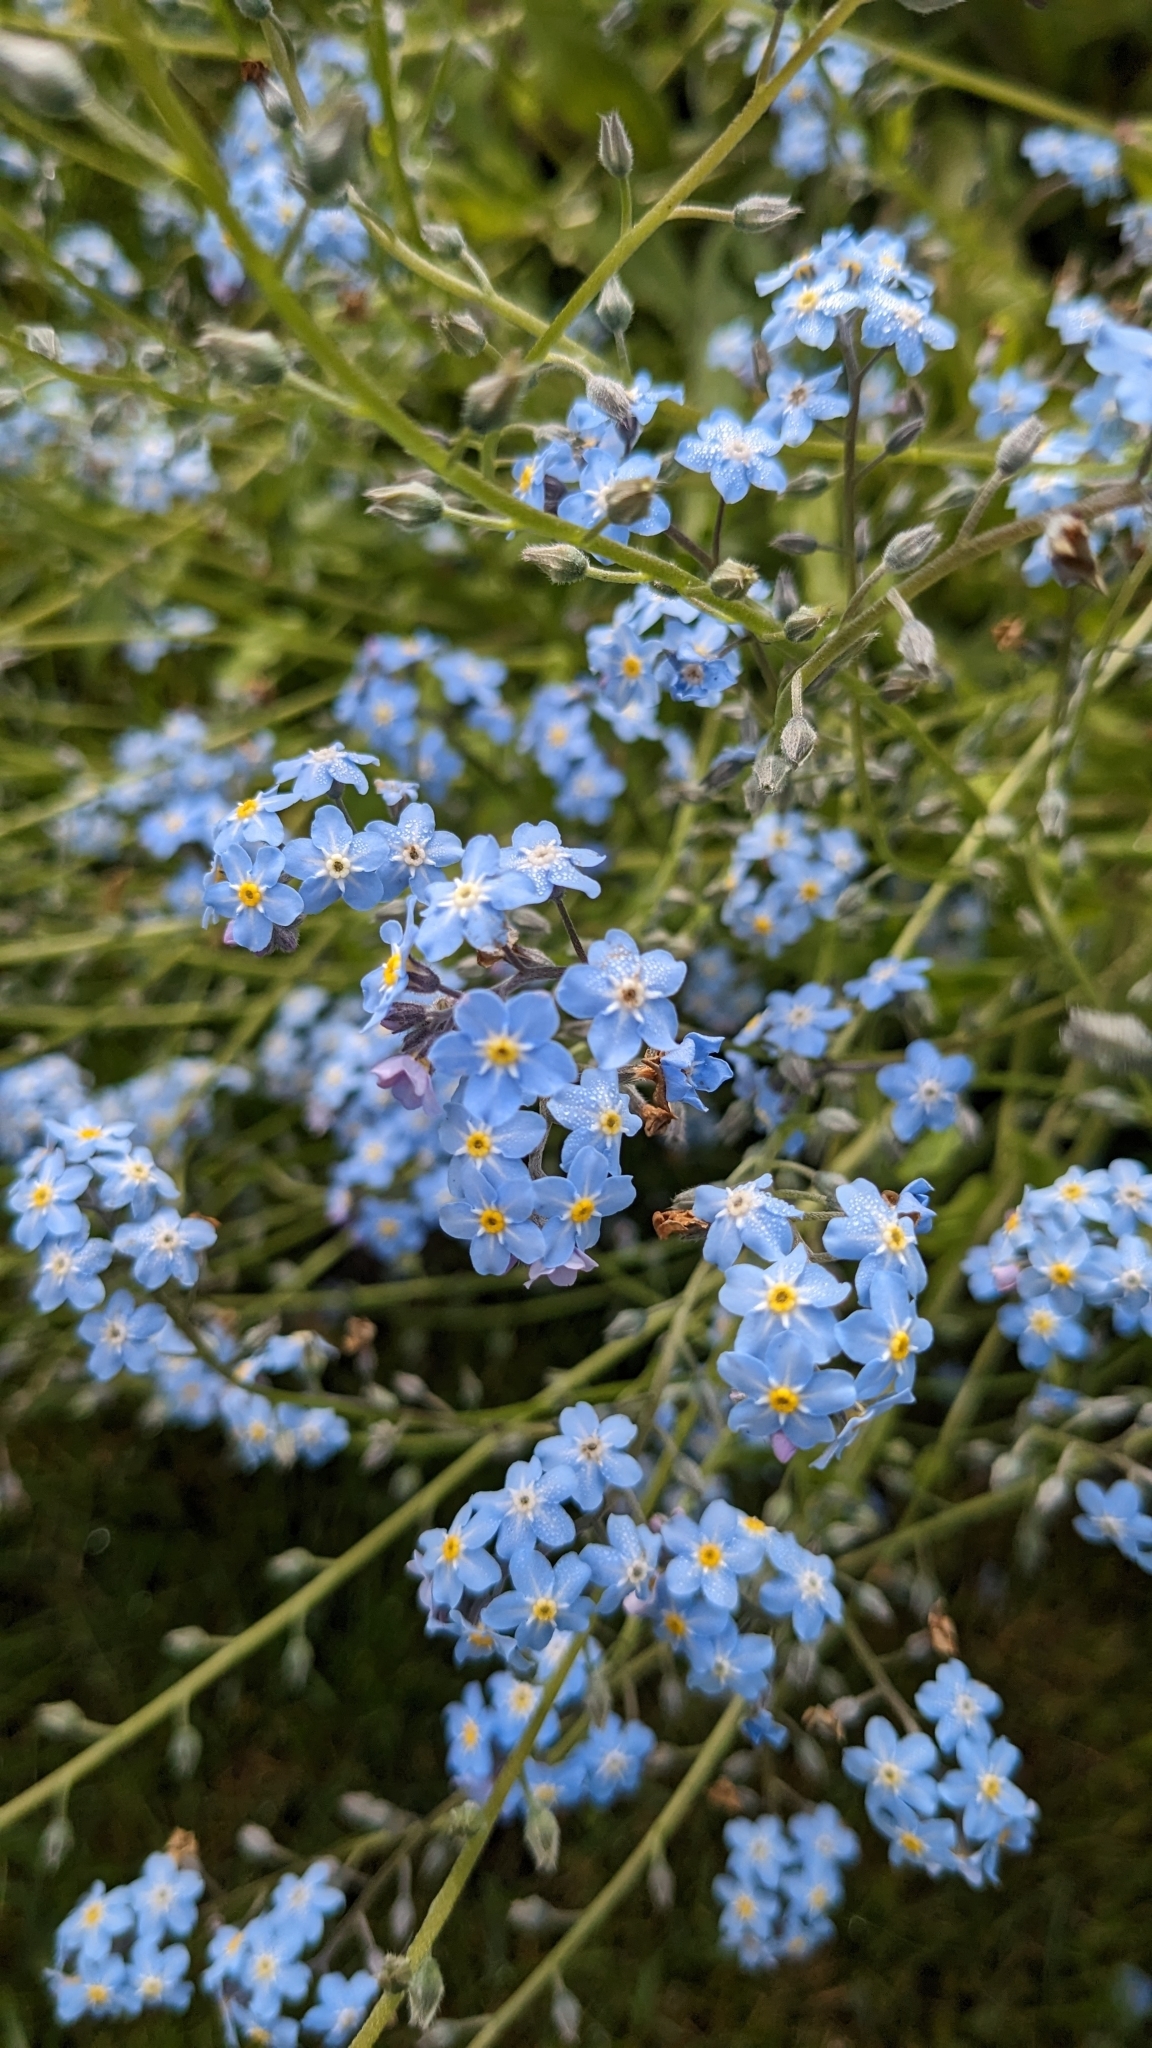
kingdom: Plantae
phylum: Tracheophyta
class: Magnoliopsida
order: Boraginales
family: Boraginaceae
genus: Myosotis
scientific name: Myosotis sylvatica
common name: Wood forget-me-not
